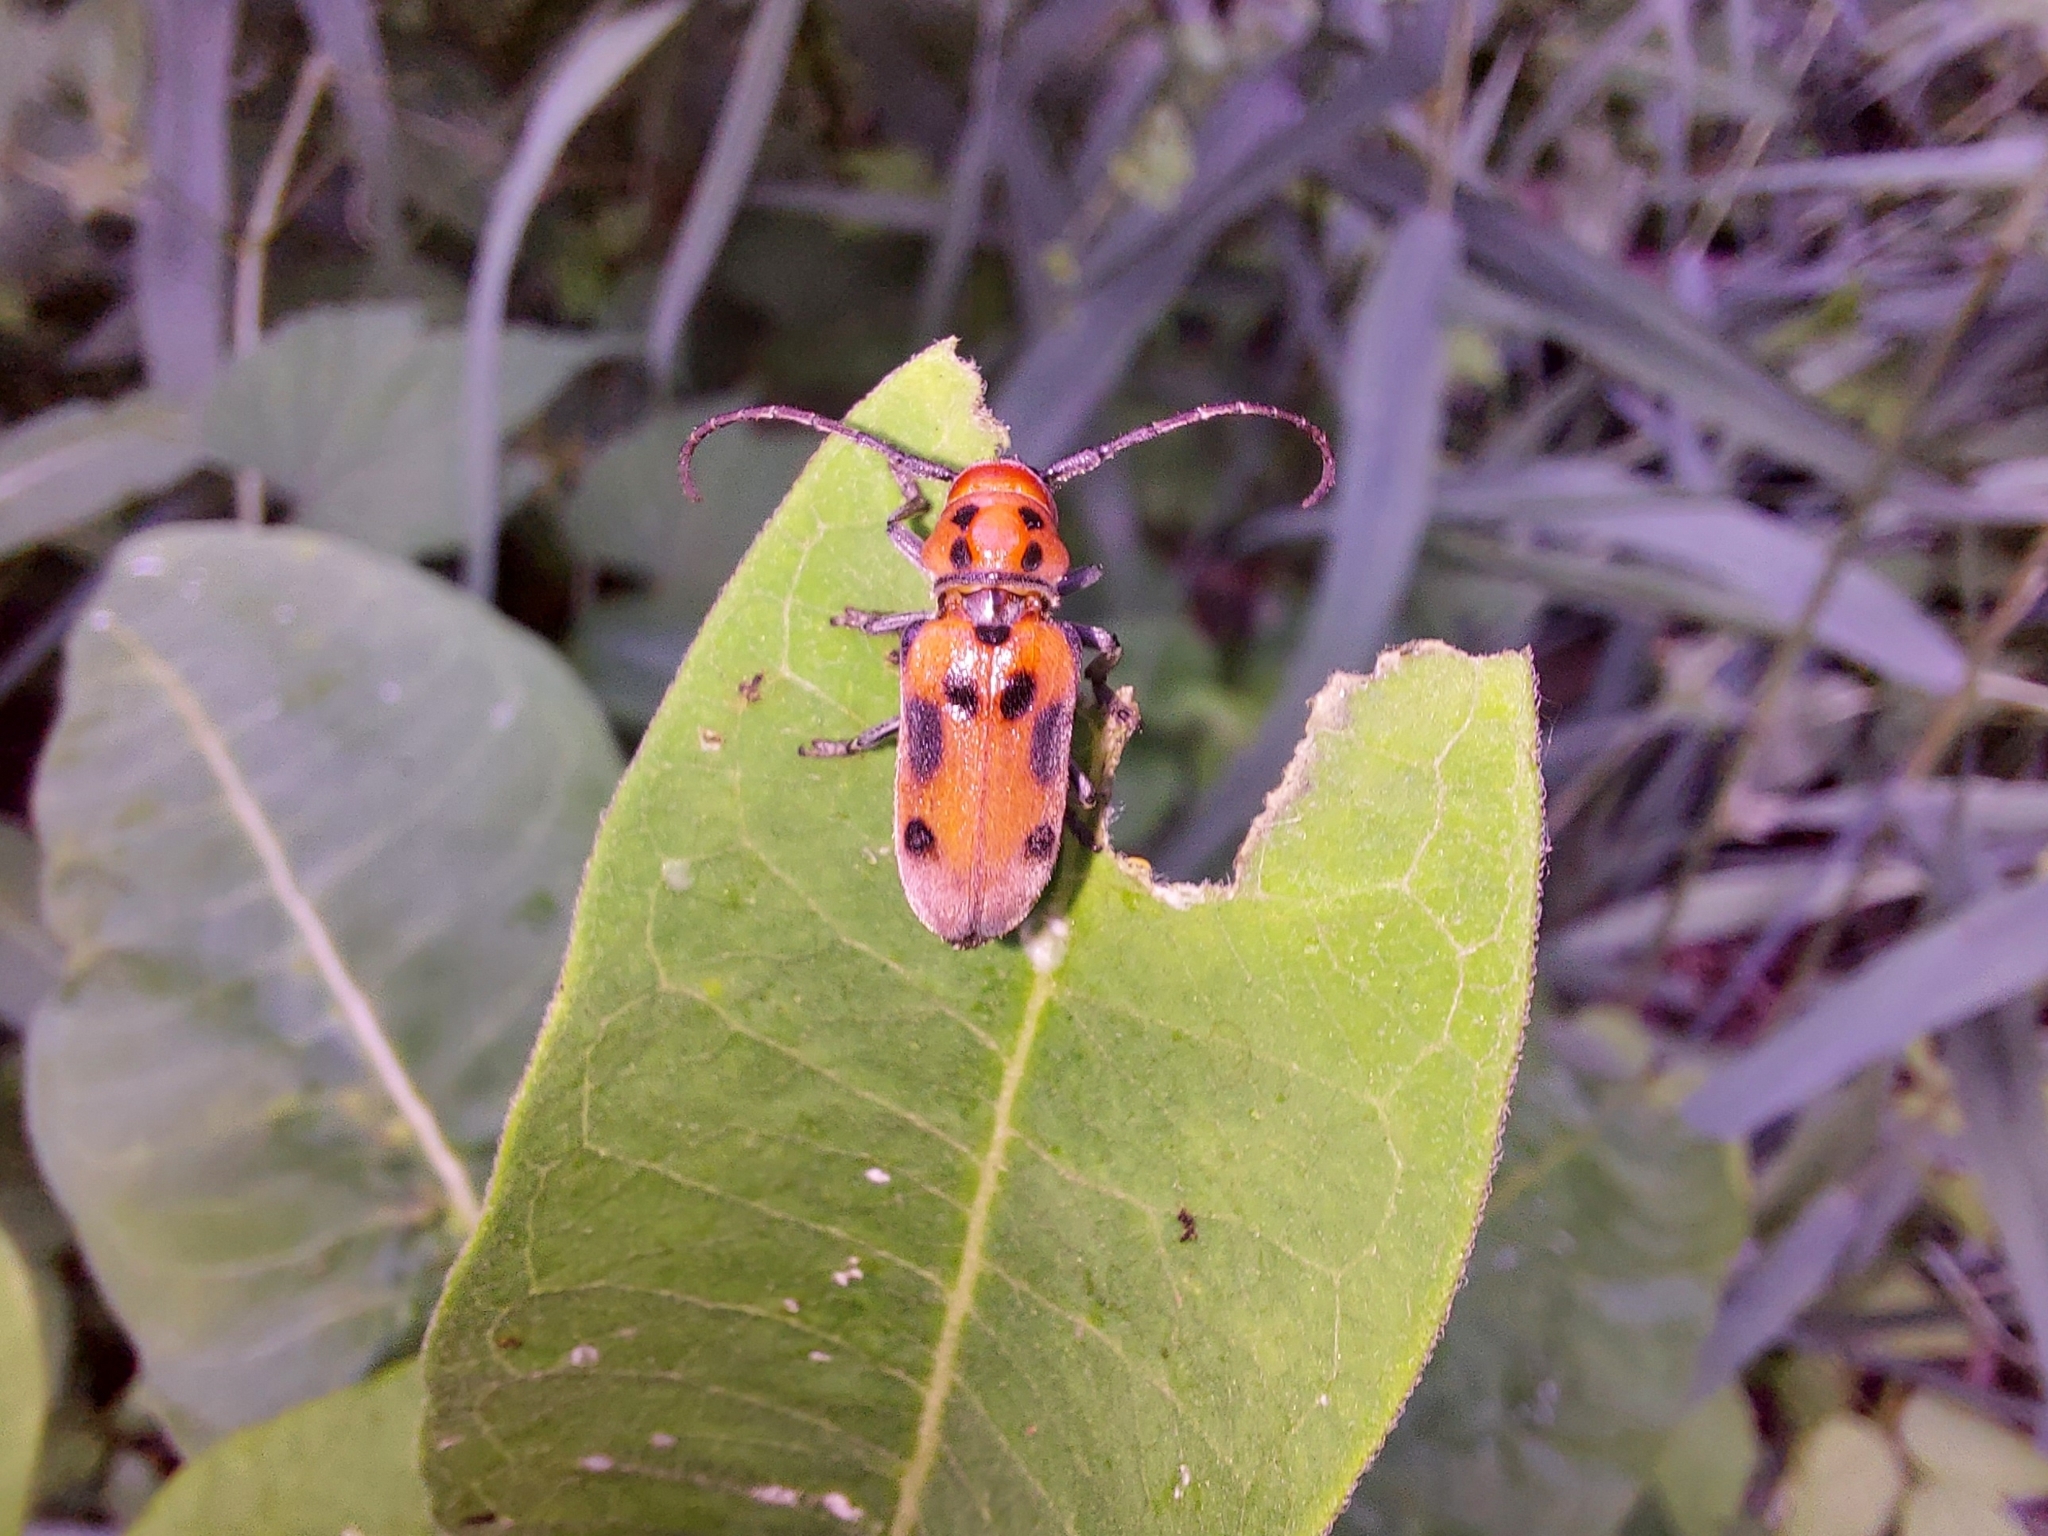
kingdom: Animalia
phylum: Arthropoda
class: Insecta
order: Coleoptera
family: Cerambycidae
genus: Tetraopes
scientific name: Tetraopes tetrophthalmus
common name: Red milkweed beetle
